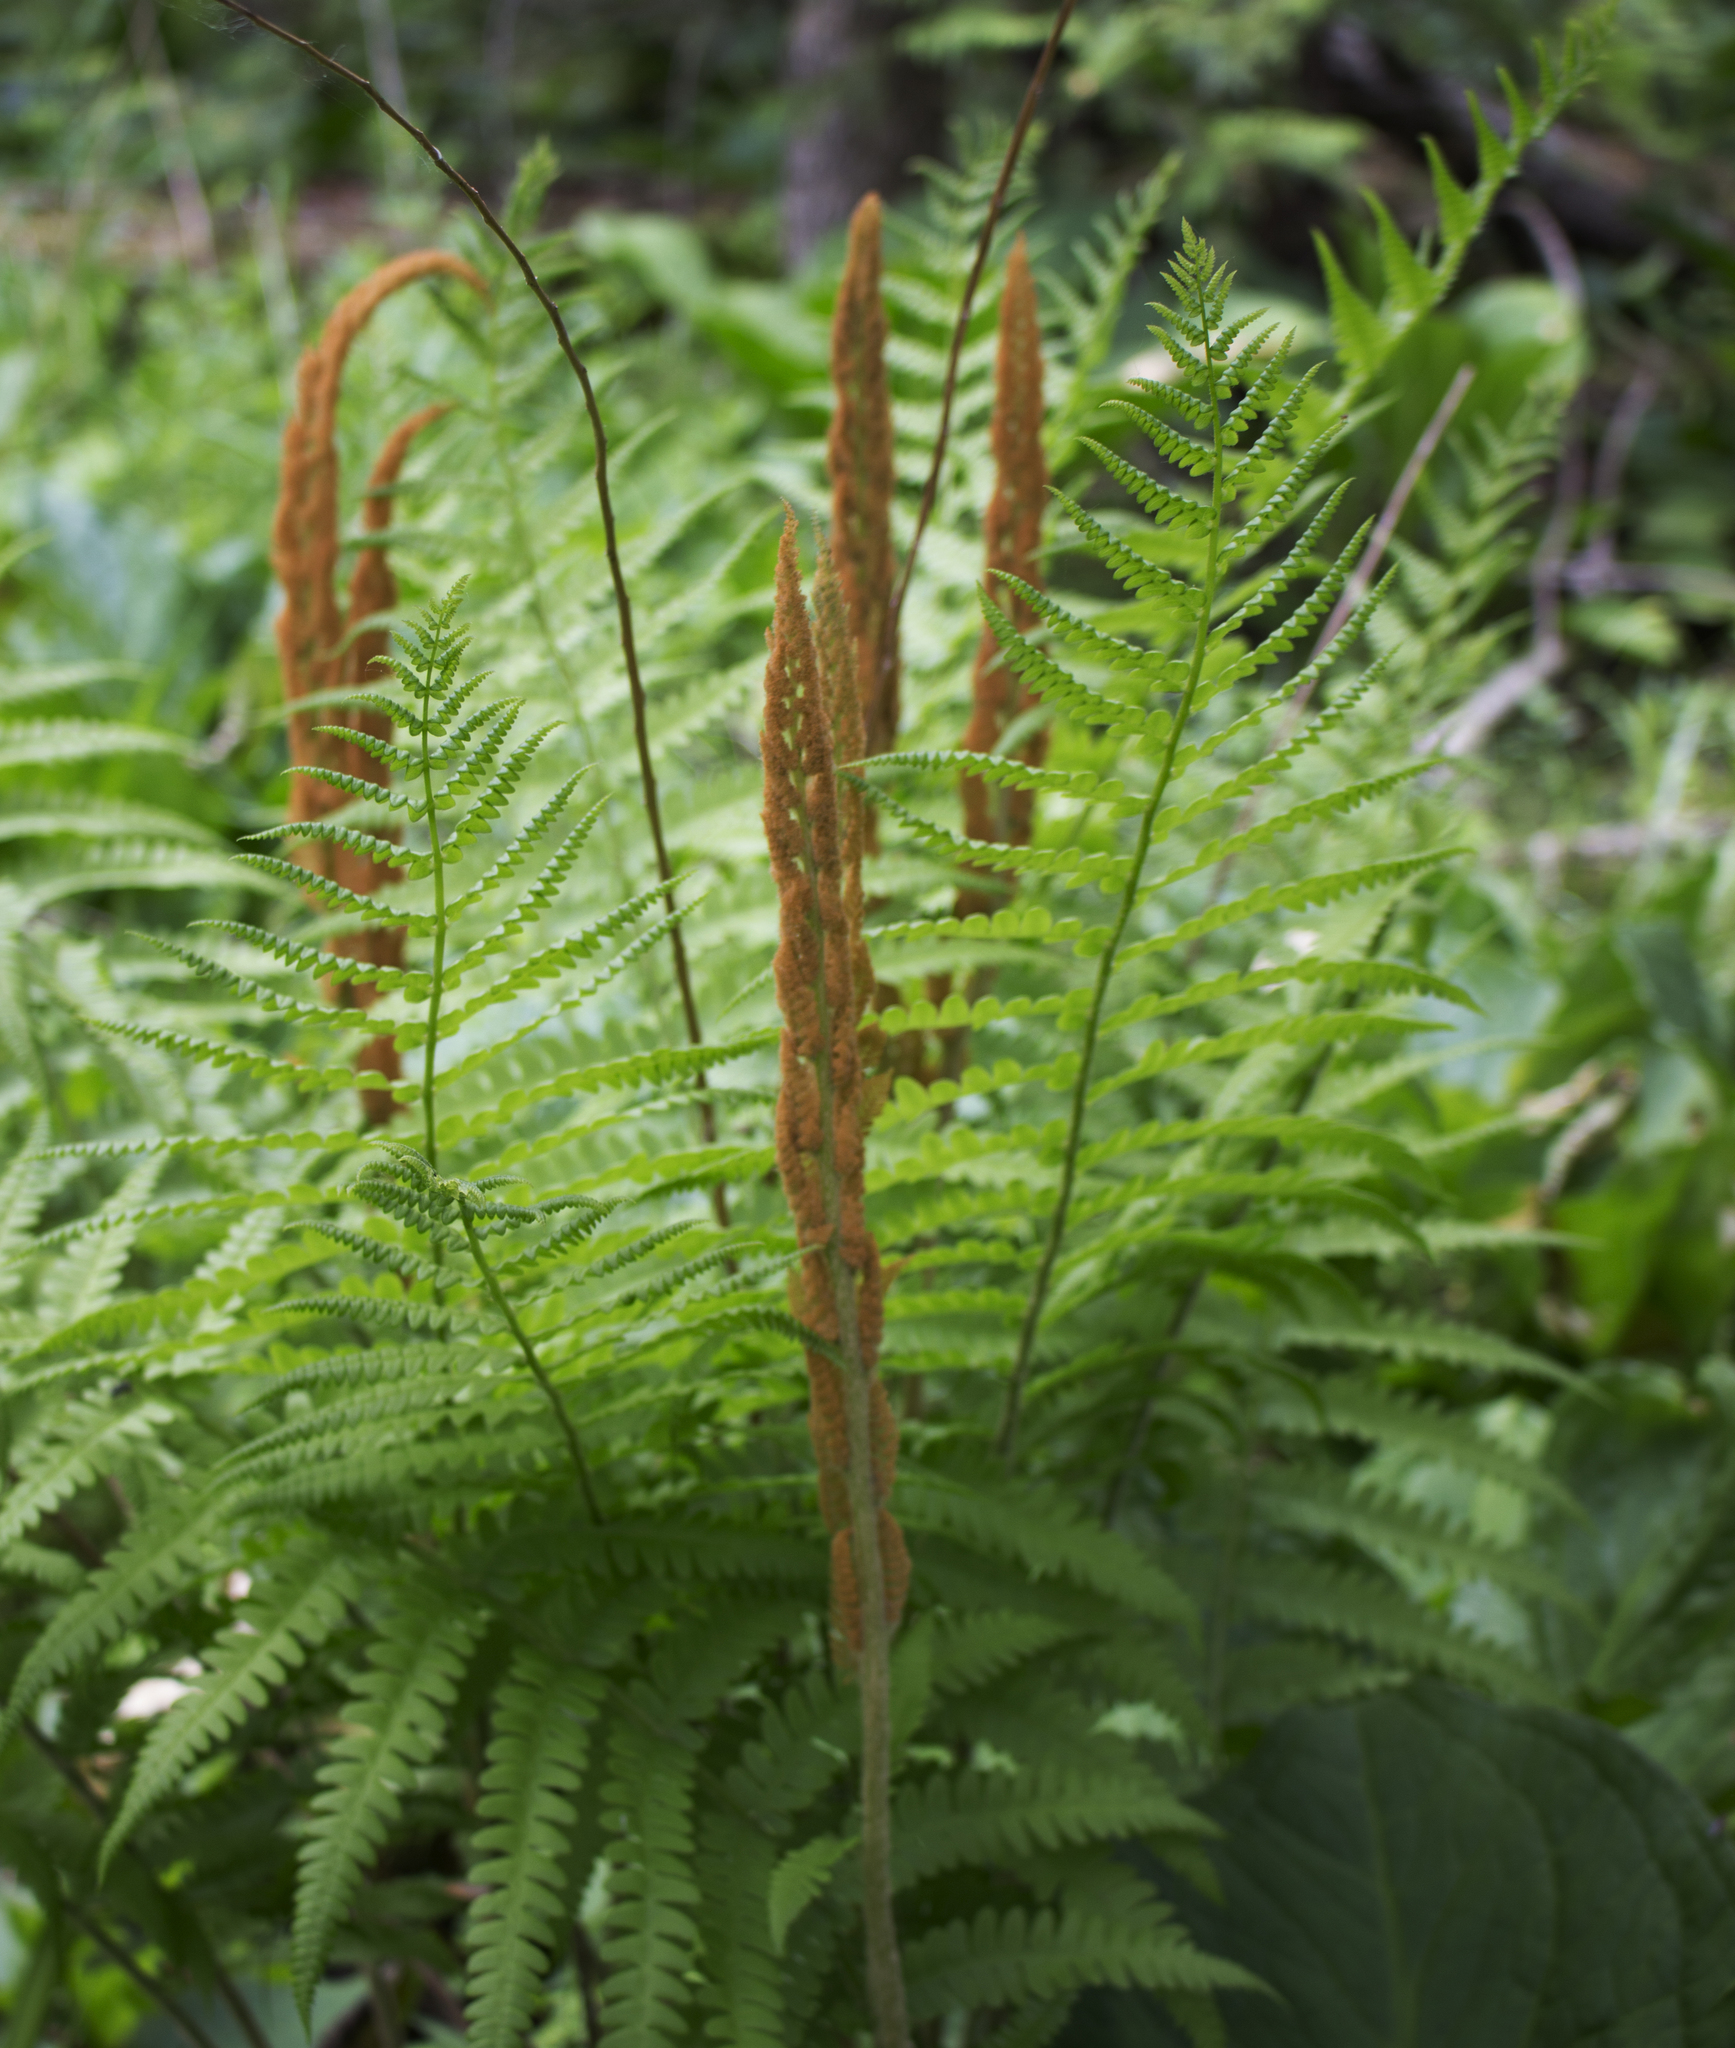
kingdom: Plantae
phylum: Tracheophyta
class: Polypodiopsida
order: Osmundales
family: Osmundaceae
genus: Osmundastrum
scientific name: Osmundastrum cinnamomeum
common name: Cinnamon fern
